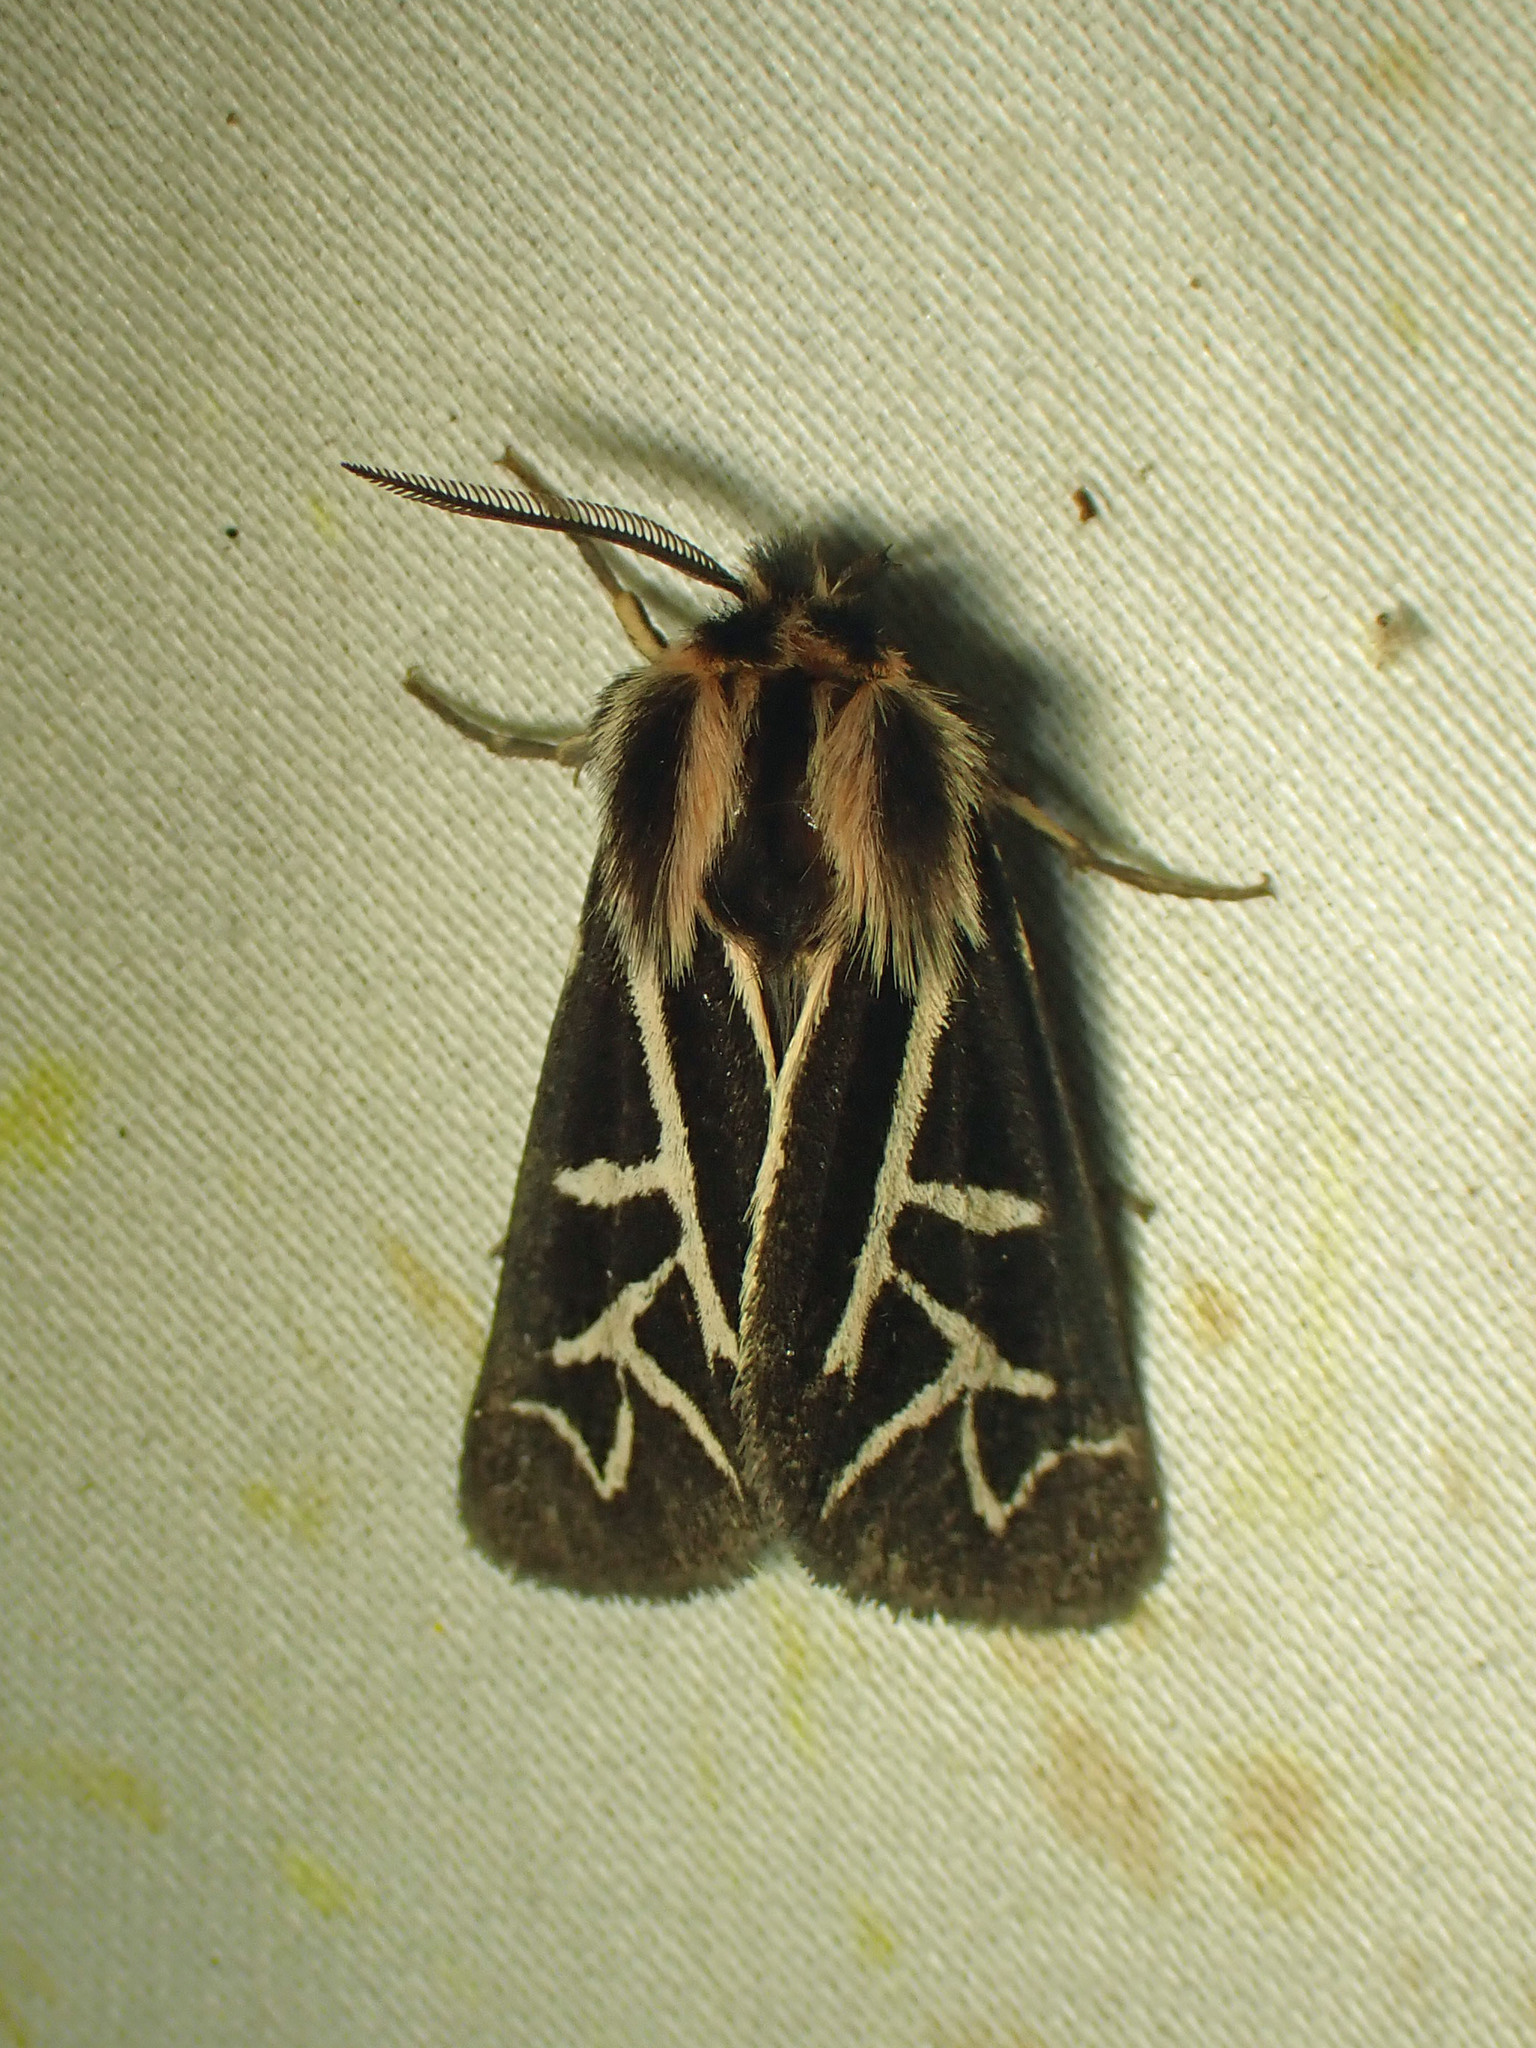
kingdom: Animalia
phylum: Arthropoda
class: Insecta
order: Lepidoptera
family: Erebidae
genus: Apantesis
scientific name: Apantesis
